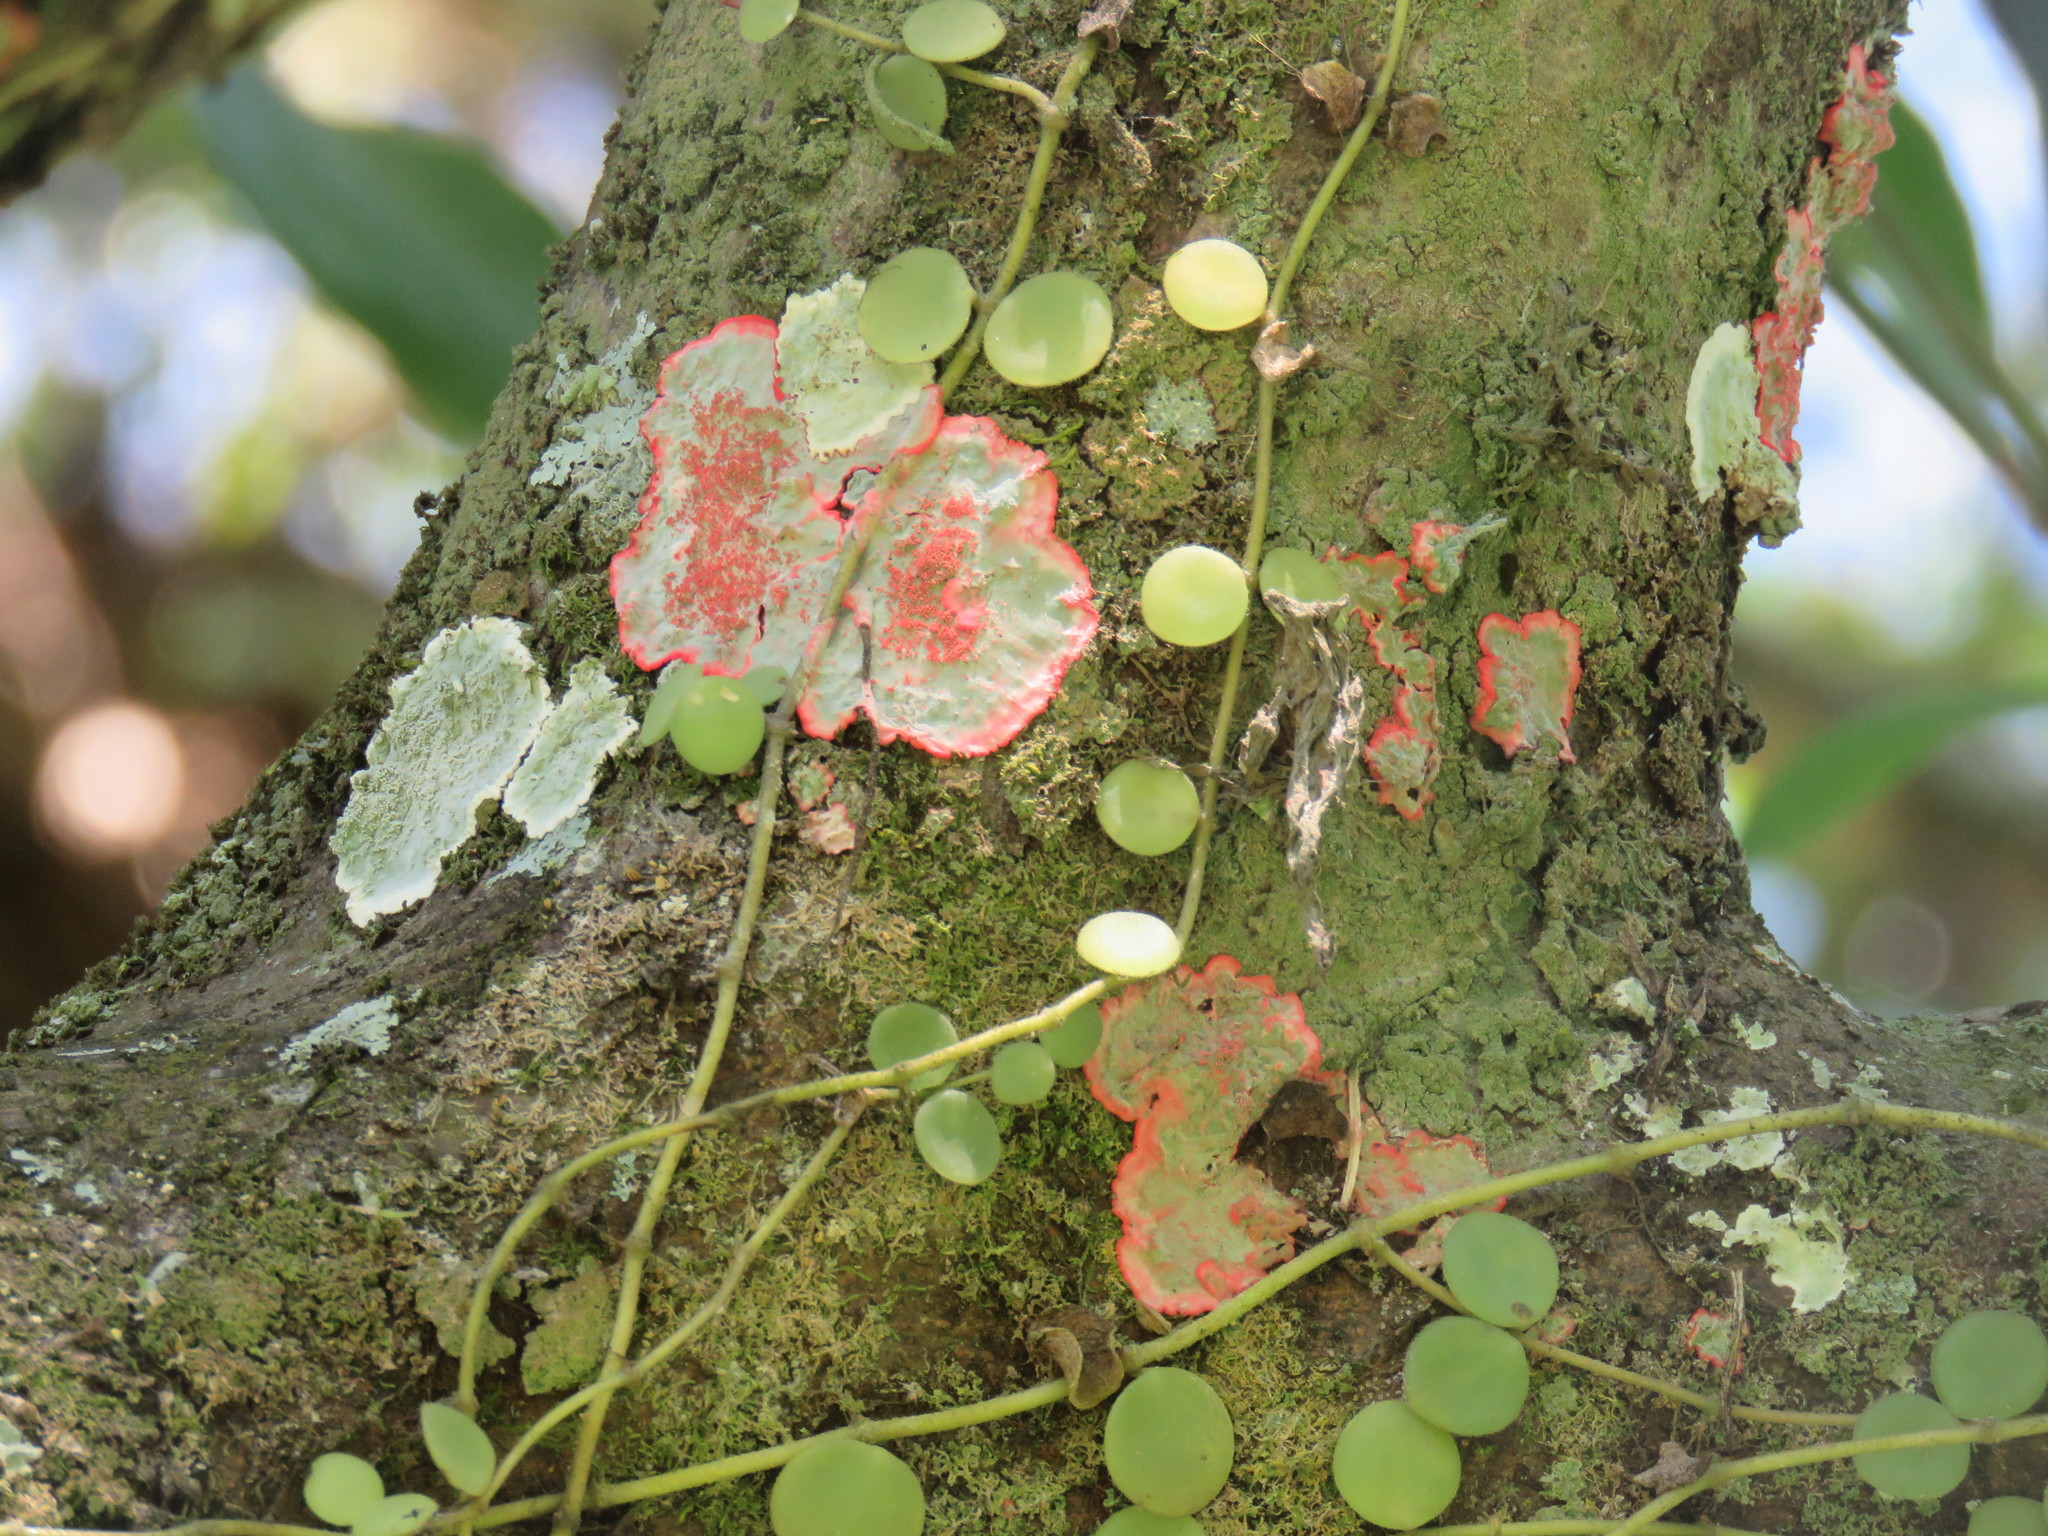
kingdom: Fungi
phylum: Ascomycota
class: Arthoniomycetes
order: Arthoniales
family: Arthoniaceae
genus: Herpothallon
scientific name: Herpothallon rubrocinctum
